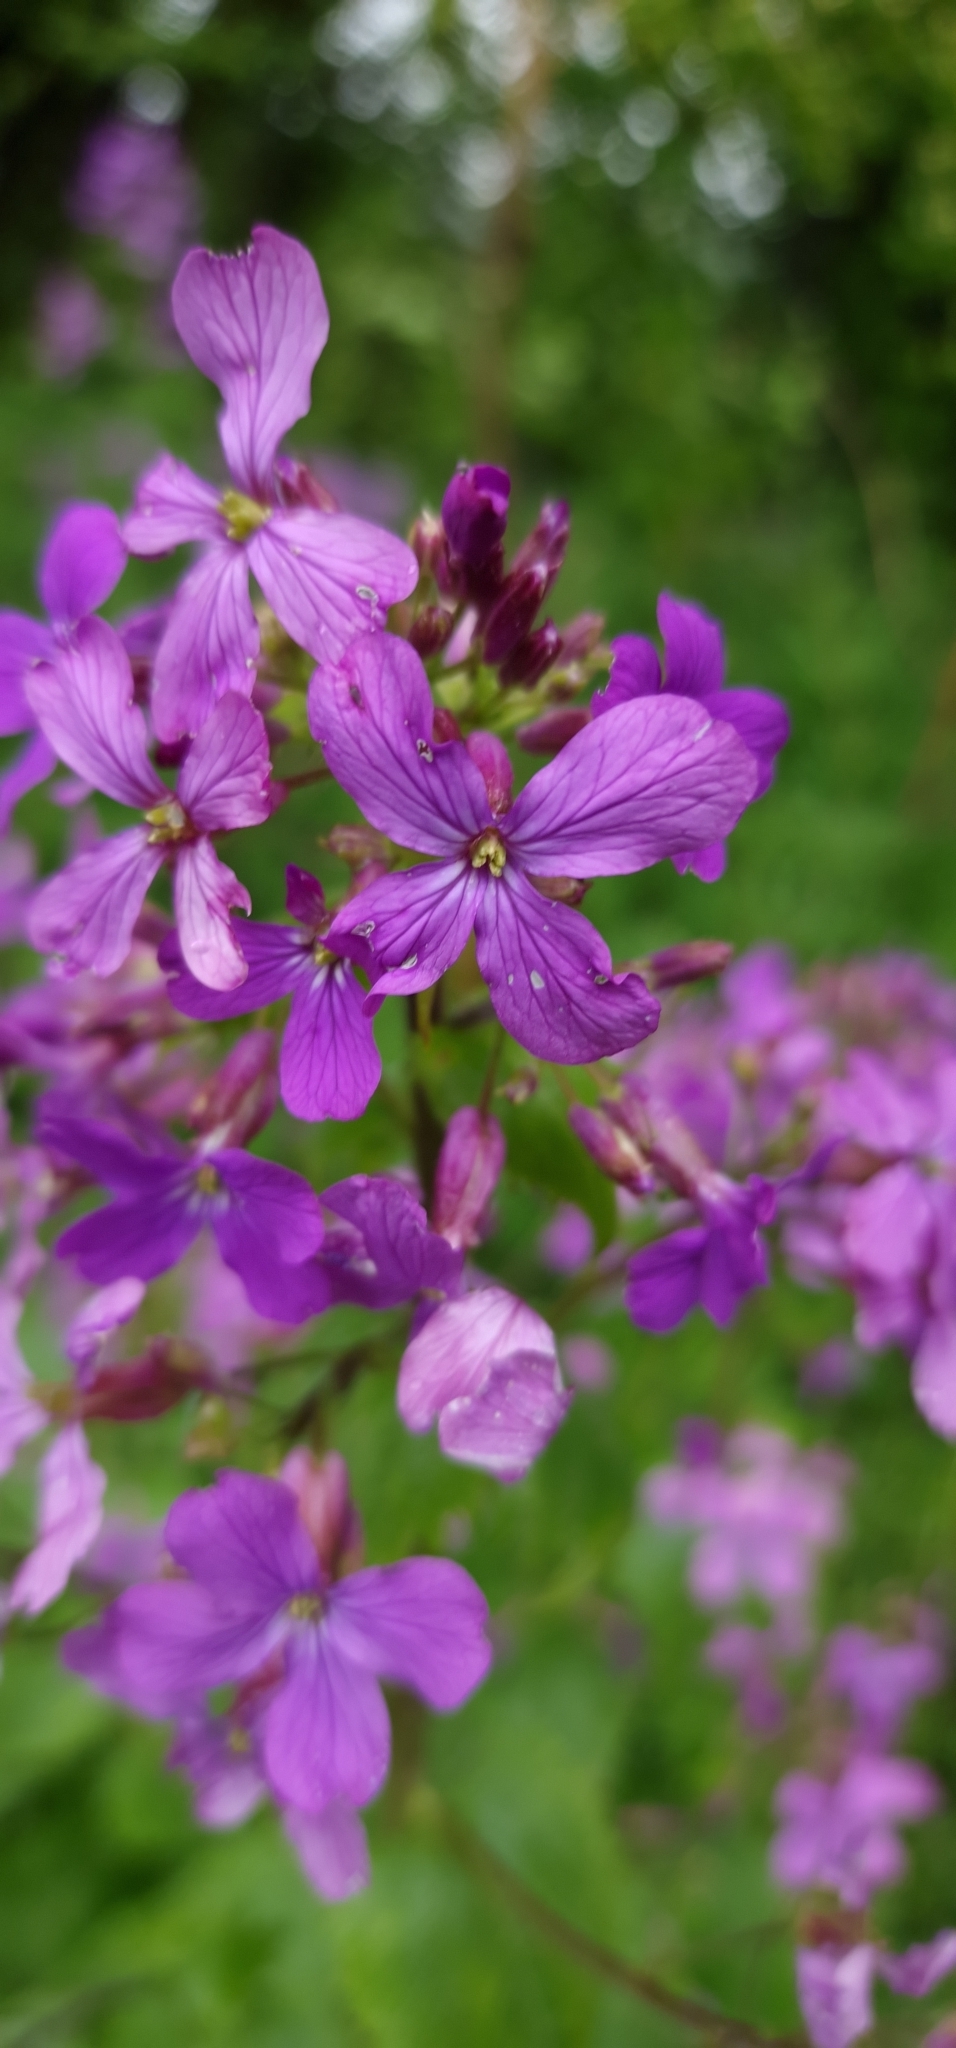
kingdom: Plantae
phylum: Tracheophyta
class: Magnoliopsida
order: Brassicales
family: Brassicaceae
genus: Lunaria
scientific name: Lunaria annua
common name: Honesty
